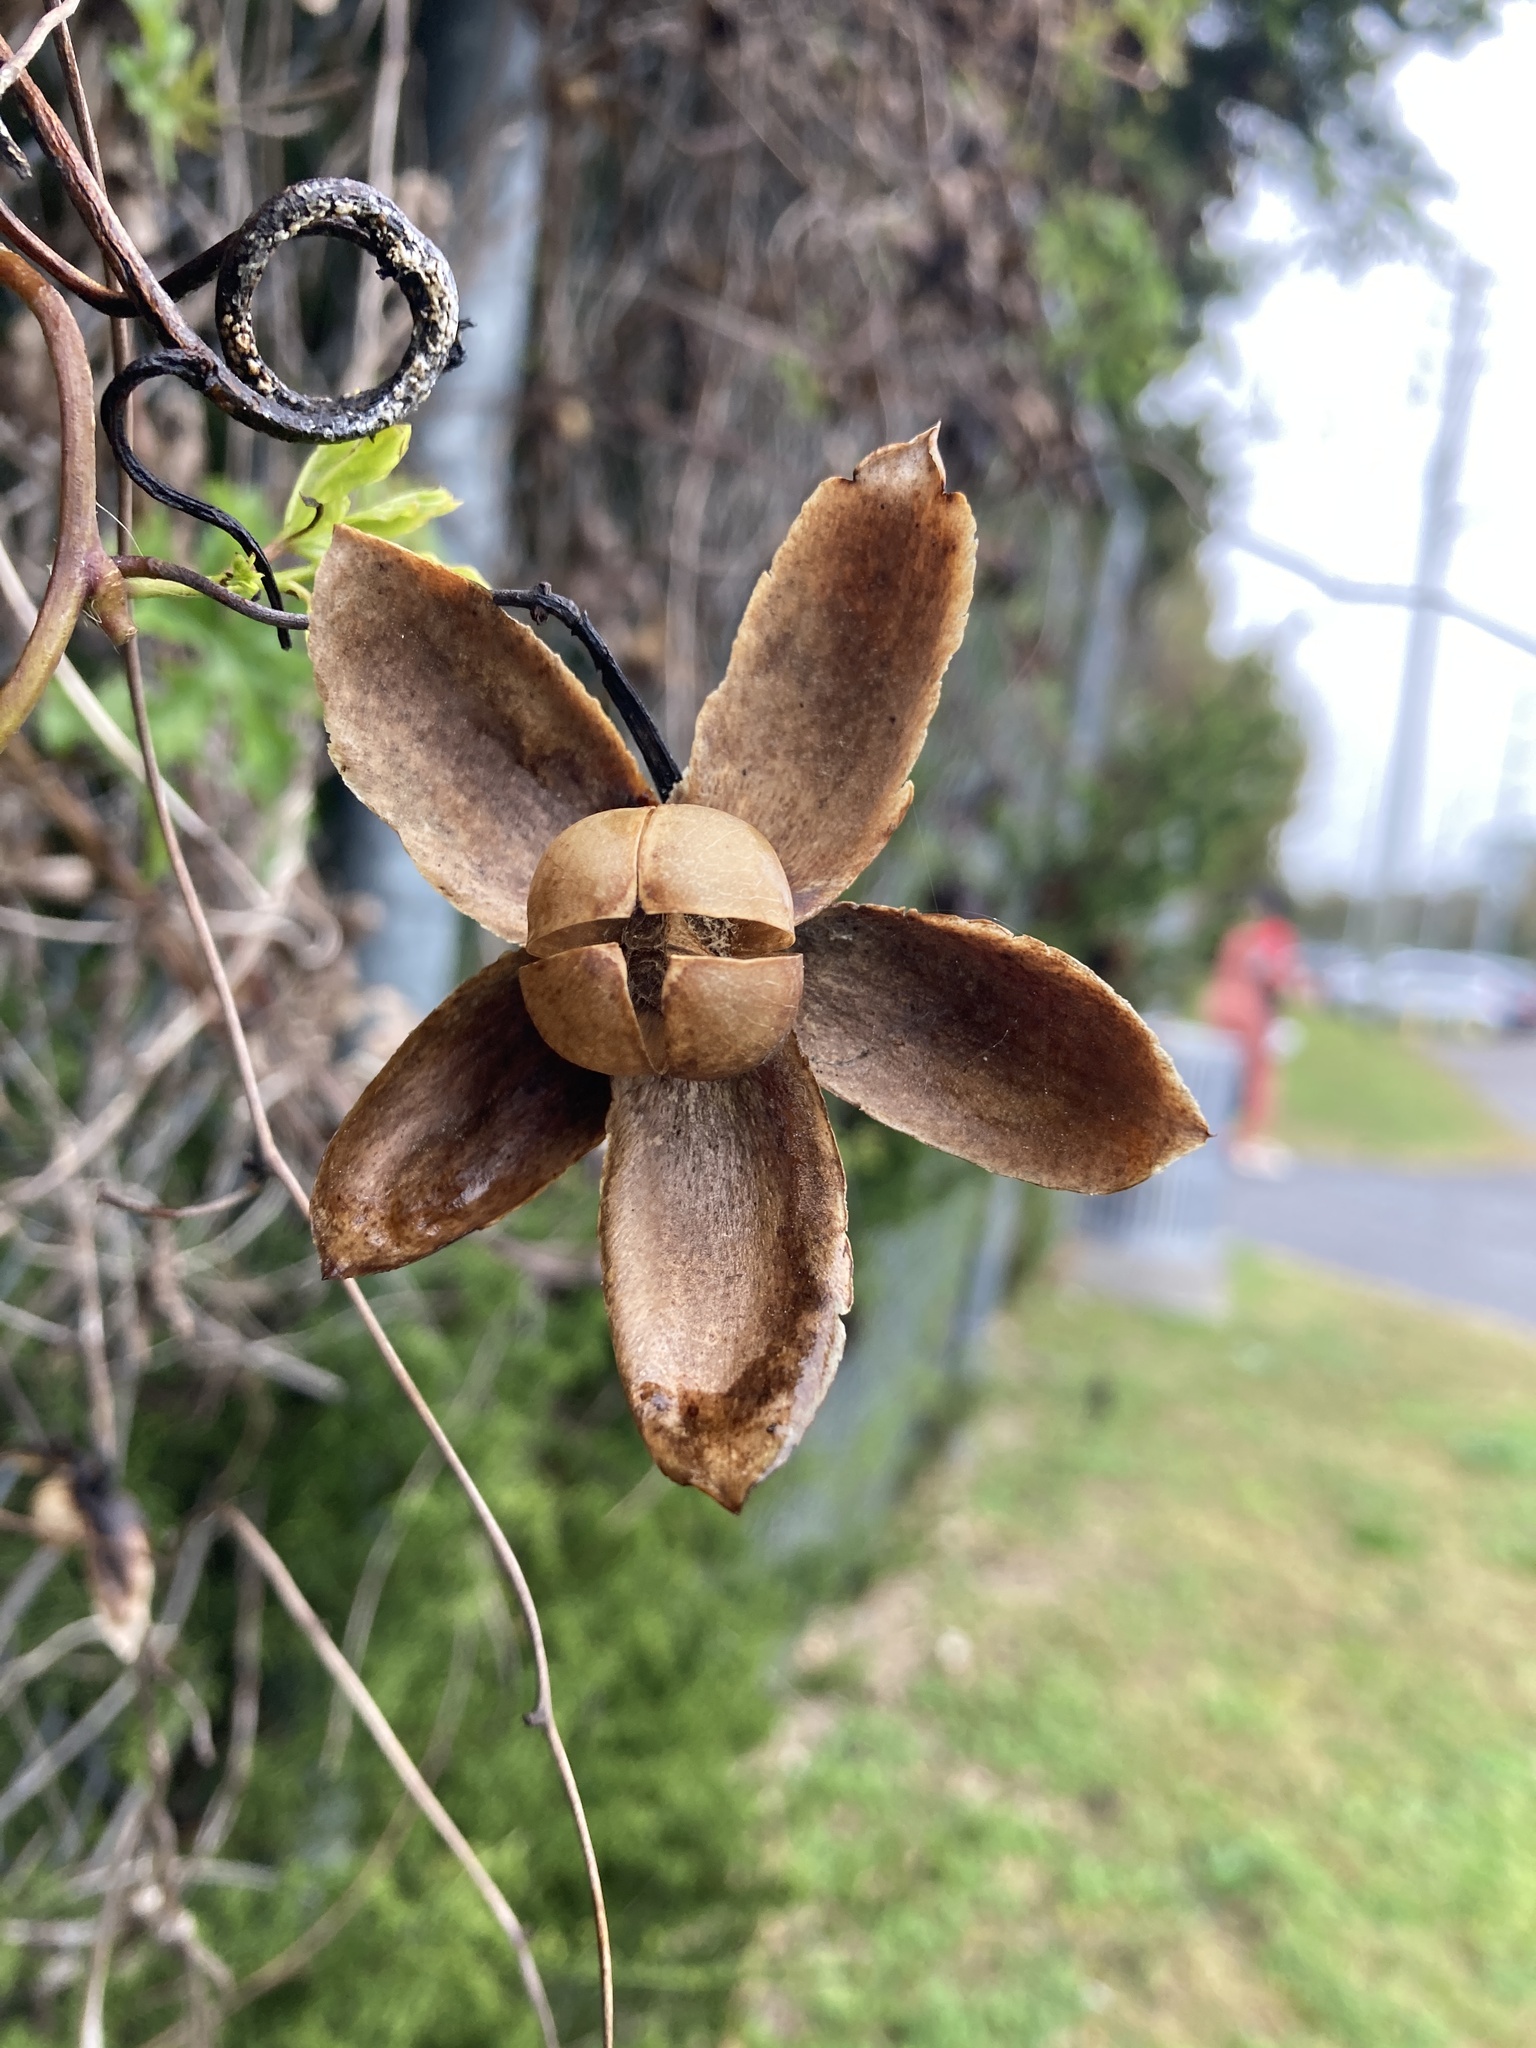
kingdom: Plantae
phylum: Tracheophyta
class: Magnoliopsida
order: Solanales
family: Convolvulaceae
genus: Distimake
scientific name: Distimake dissectus
